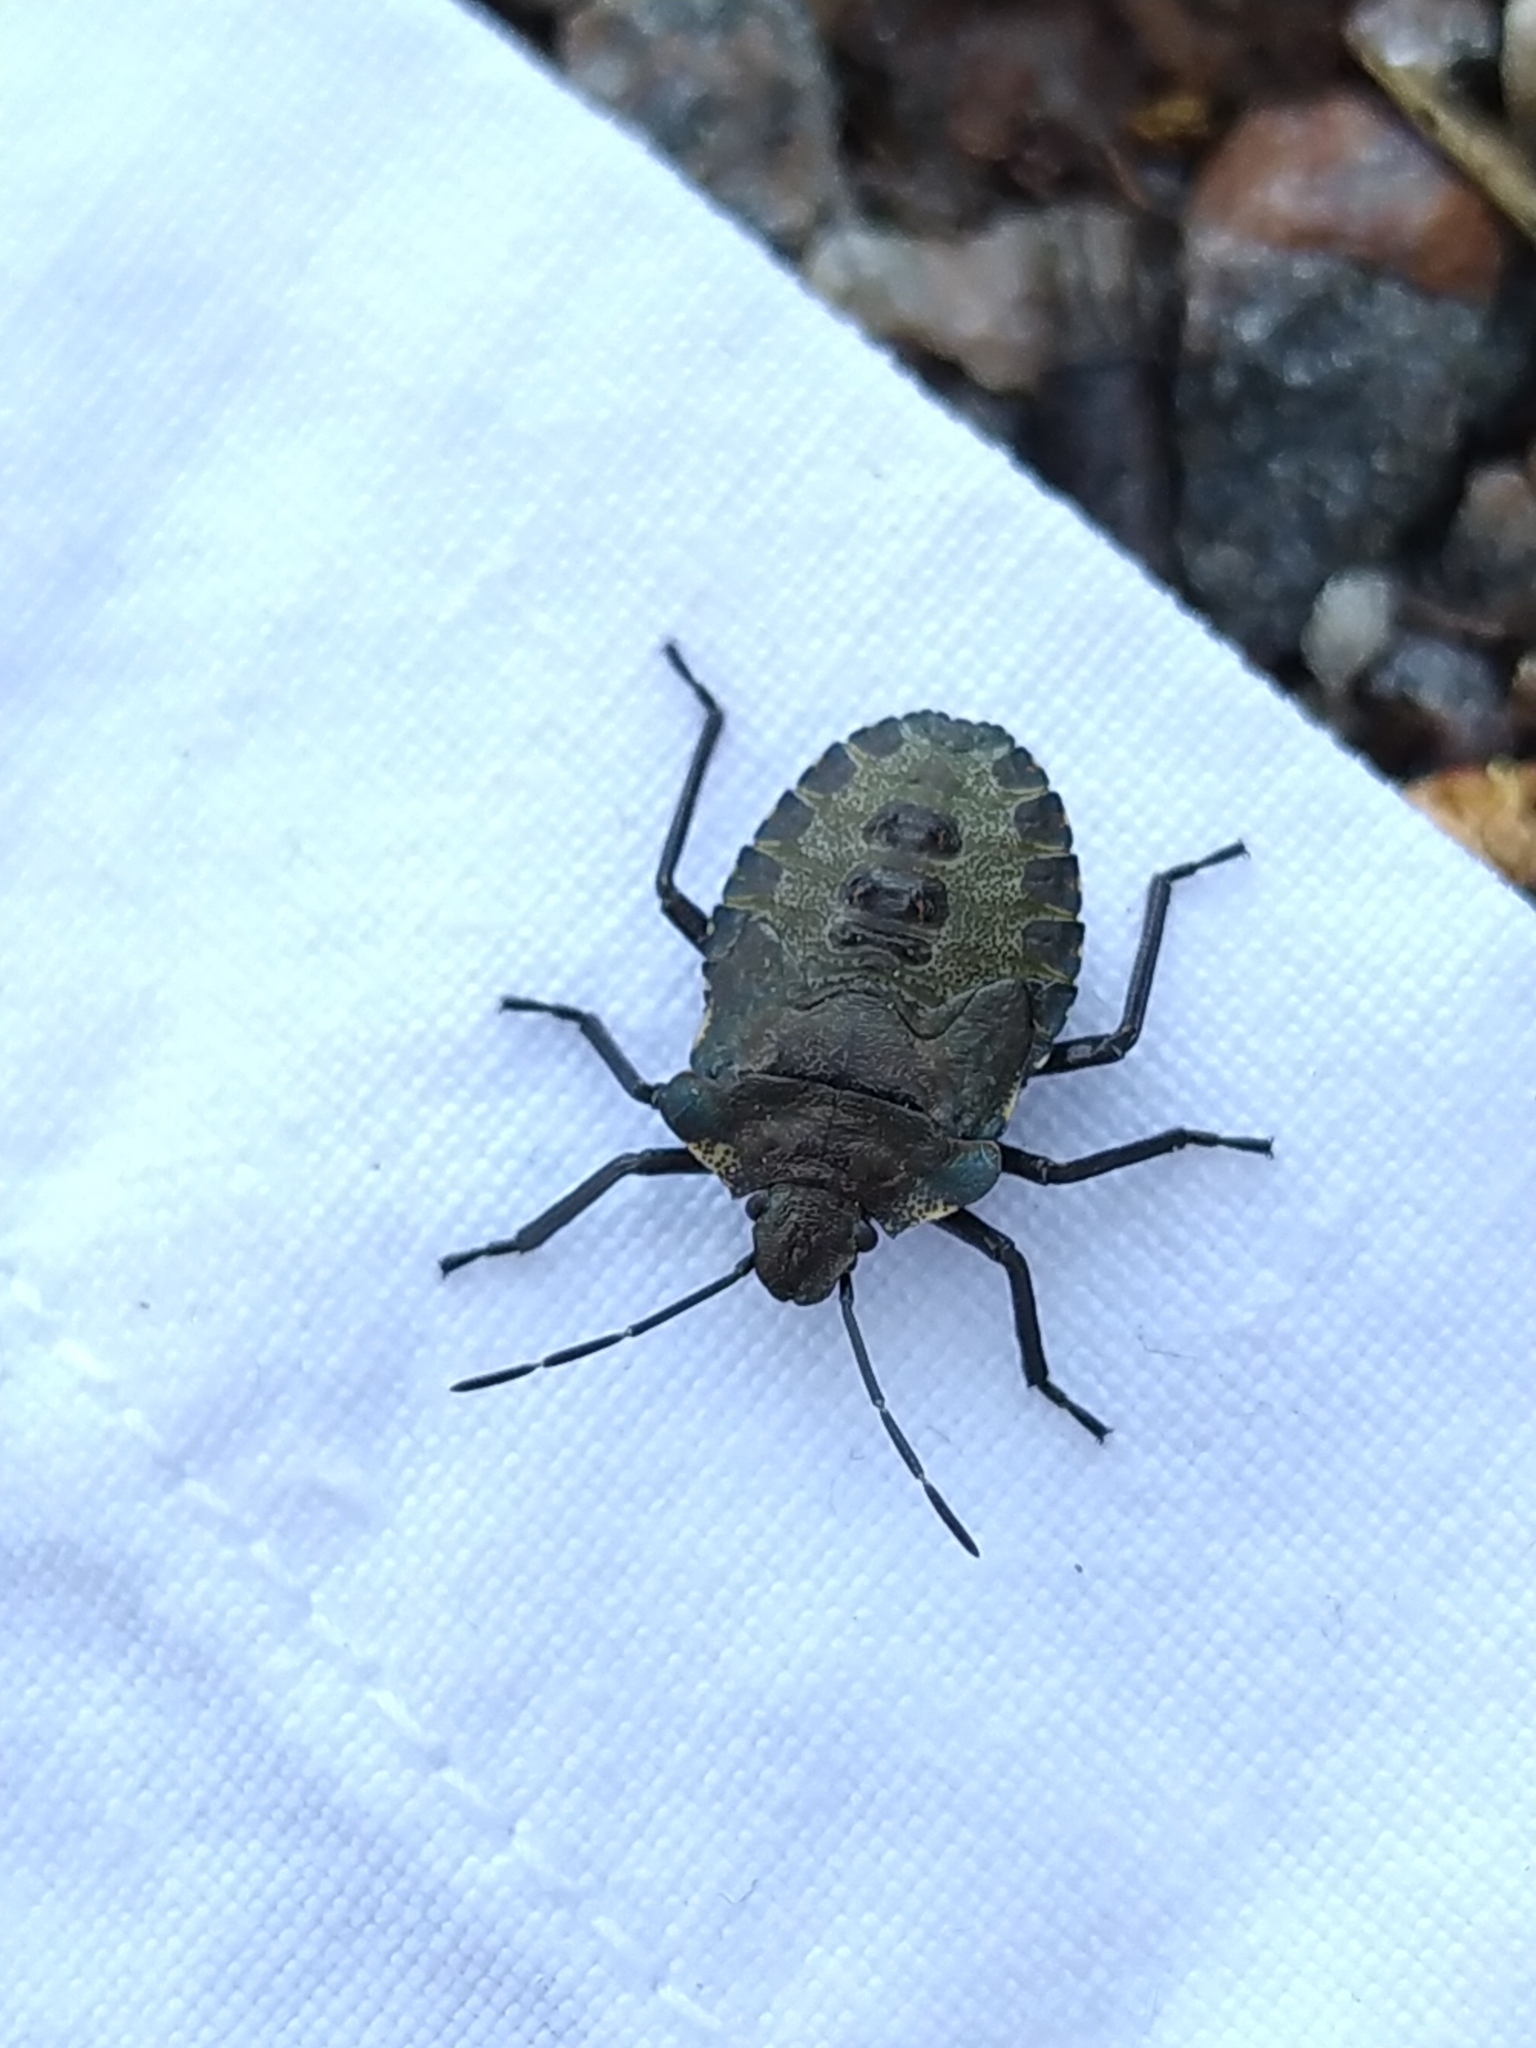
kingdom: Animalia
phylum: Arthropoda
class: Insecta
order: Hemiptera
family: Pentatomidae
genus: Pentatoma
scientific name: Pentatoma rufipes
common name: Forest bug
